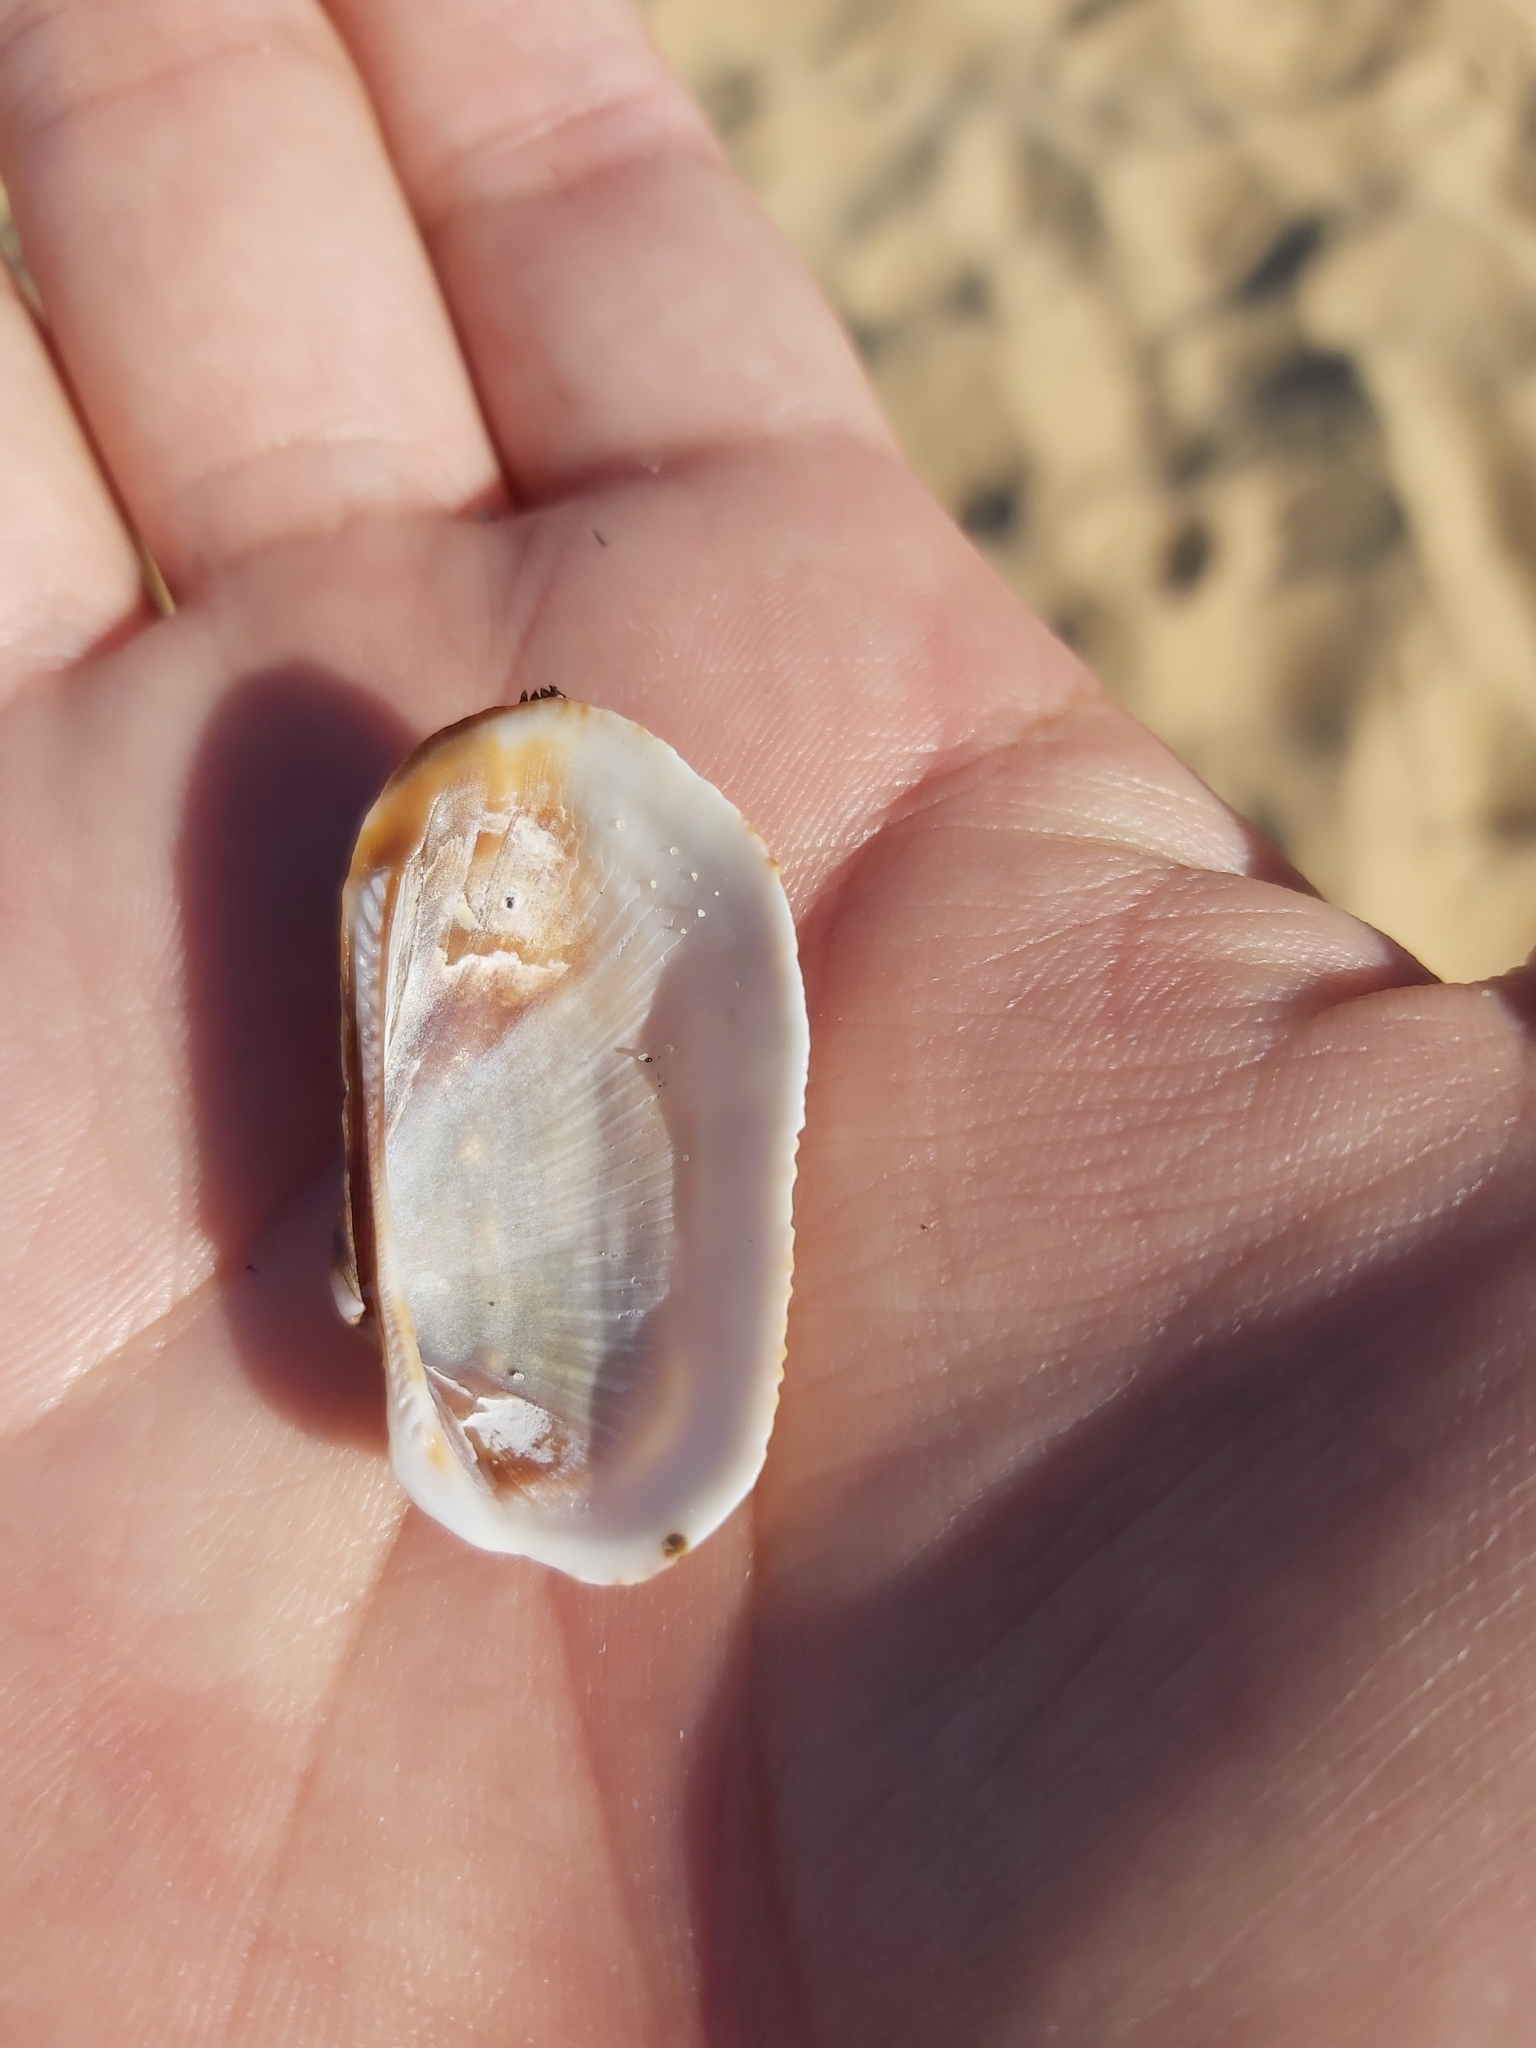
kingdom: Animalia
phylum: Mollusca
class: Bivalvia
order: Arcida
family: Arcidae
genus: Barbatia
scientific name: Barbatia pistachia
